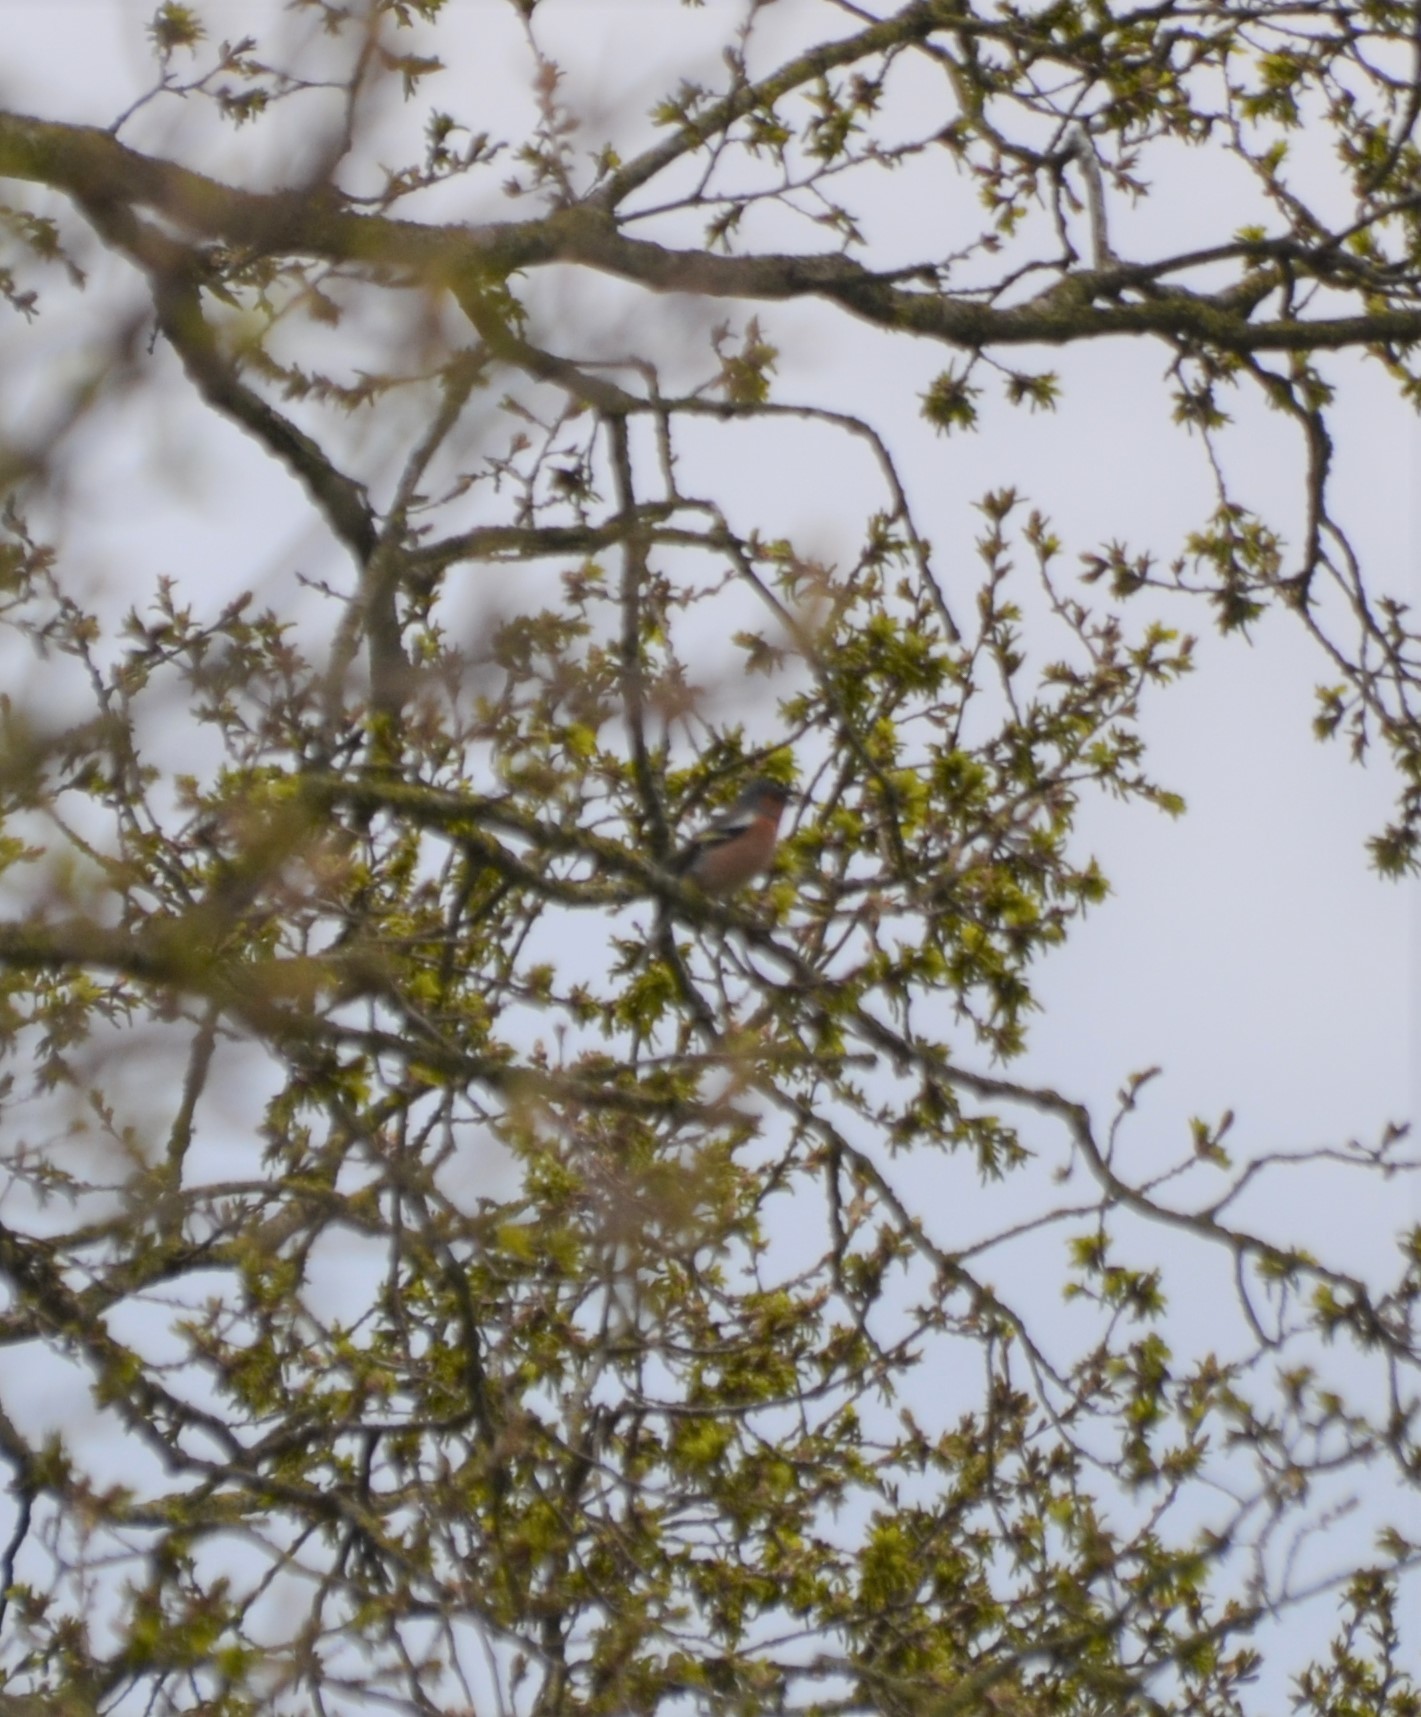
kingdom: Animalia
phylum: Chordata
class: Aves
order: Passeriformes
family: Fringillidae
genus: Fringilla
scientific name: Fringilla coelebs
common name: Common chaffinch
